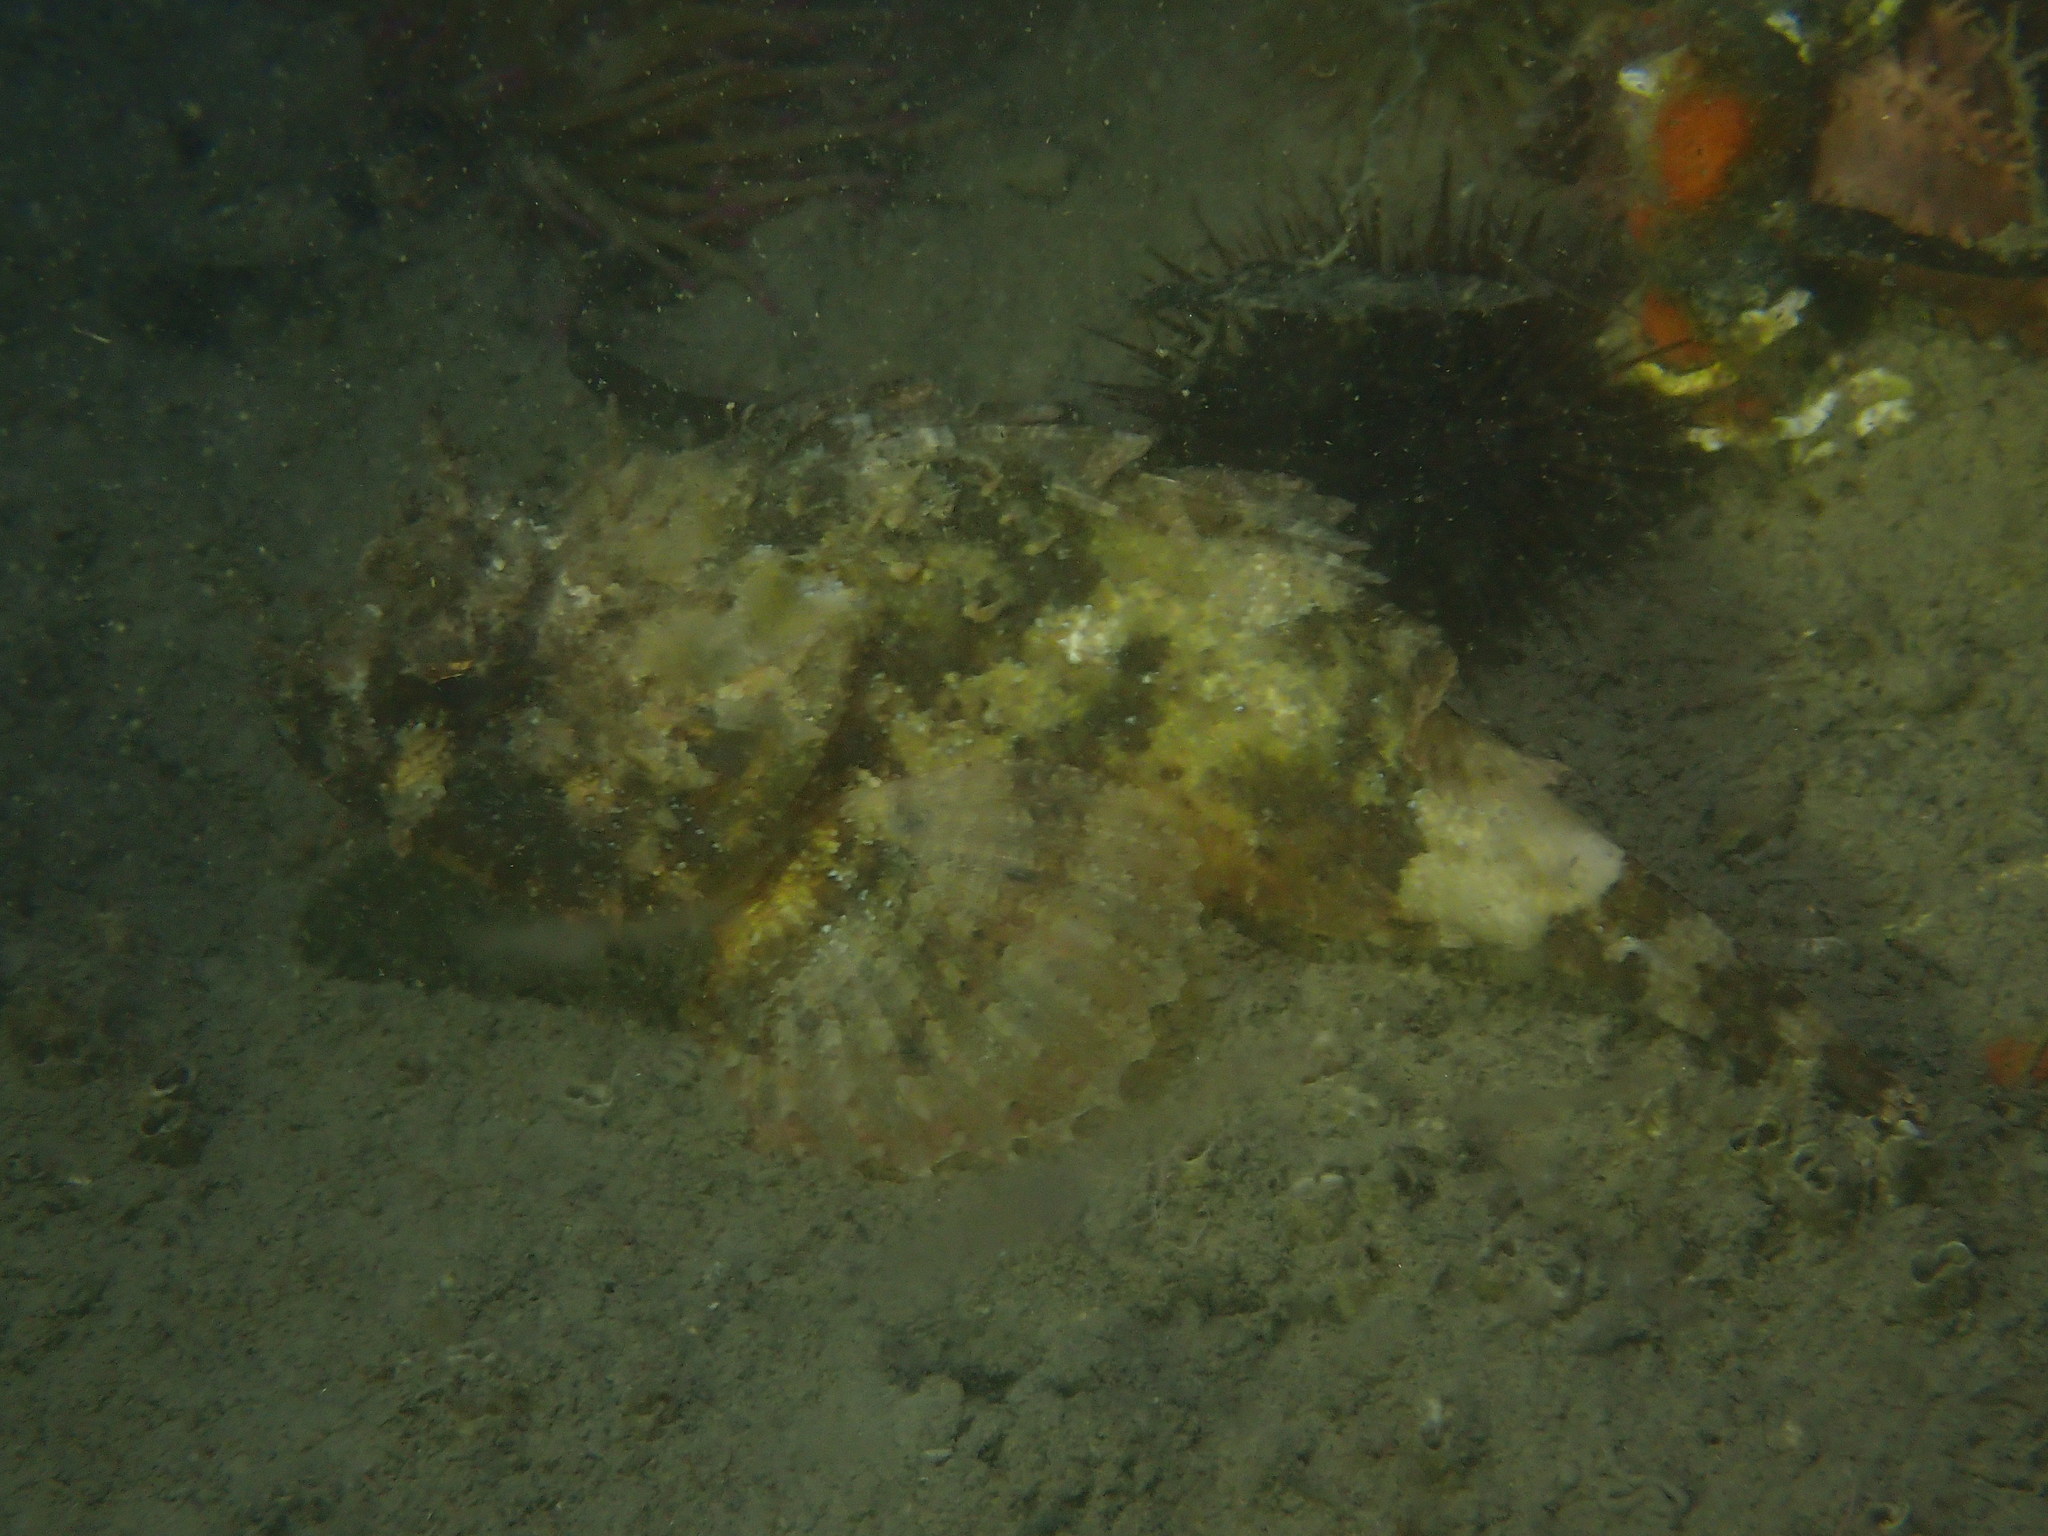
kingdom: Animalia
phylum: Chordata
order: Scorpaeniformes
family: Scorpaenidae
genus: Scorpaena
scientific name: Scorpaena porcus
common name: Black scorpionfish
